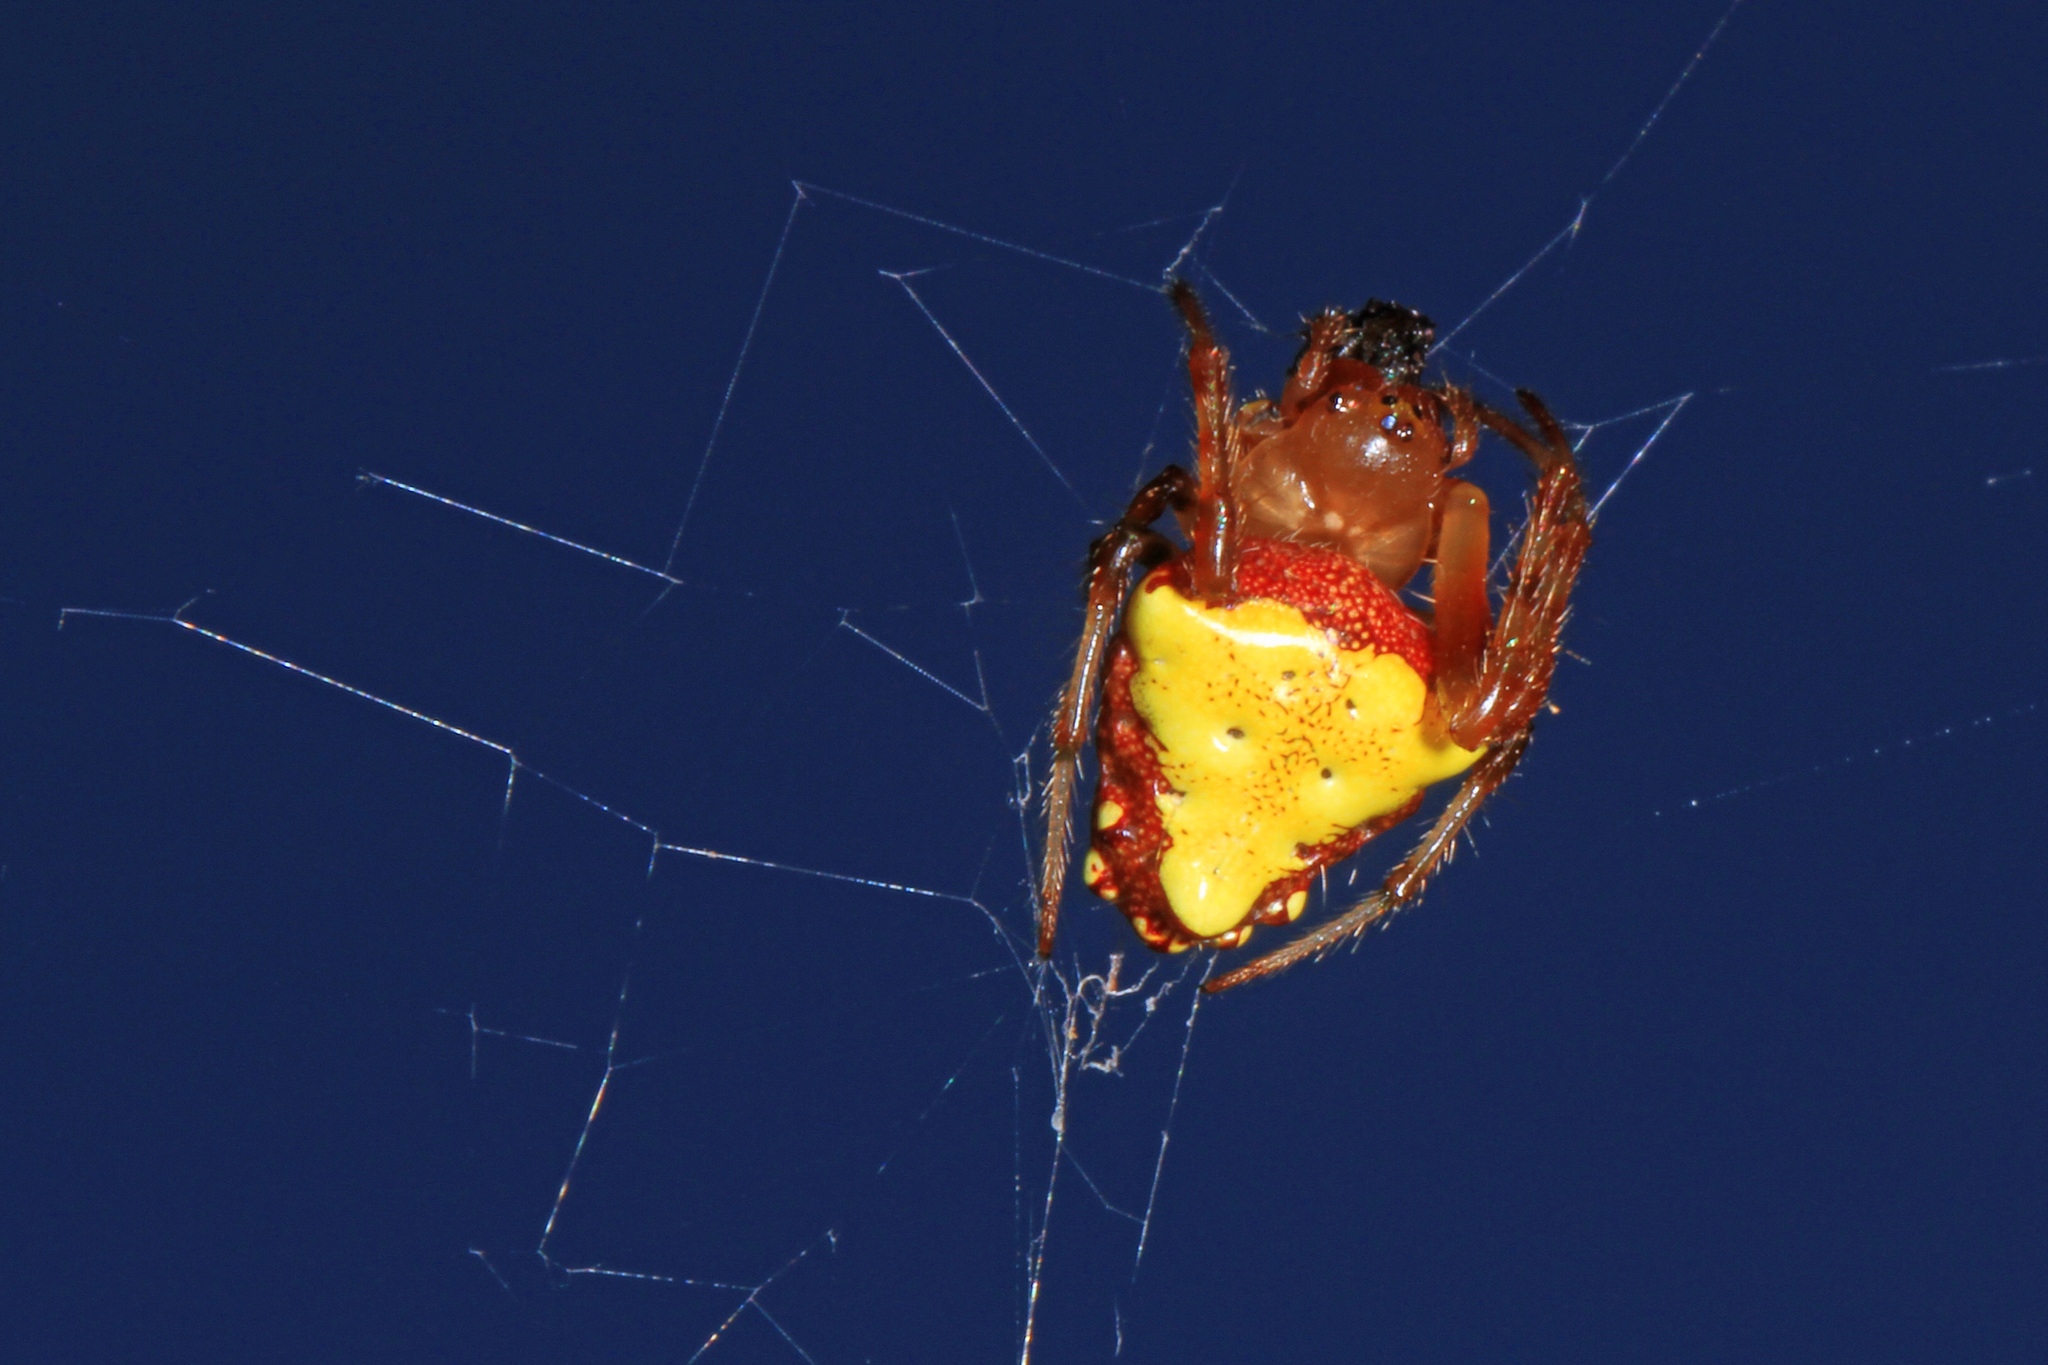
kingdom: Animalia
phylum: Arthropoda
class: Arachnida
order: Araneae
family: Araneidae
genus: Verrucosa
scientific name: Verrucosa arenata
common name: Orb weavers
